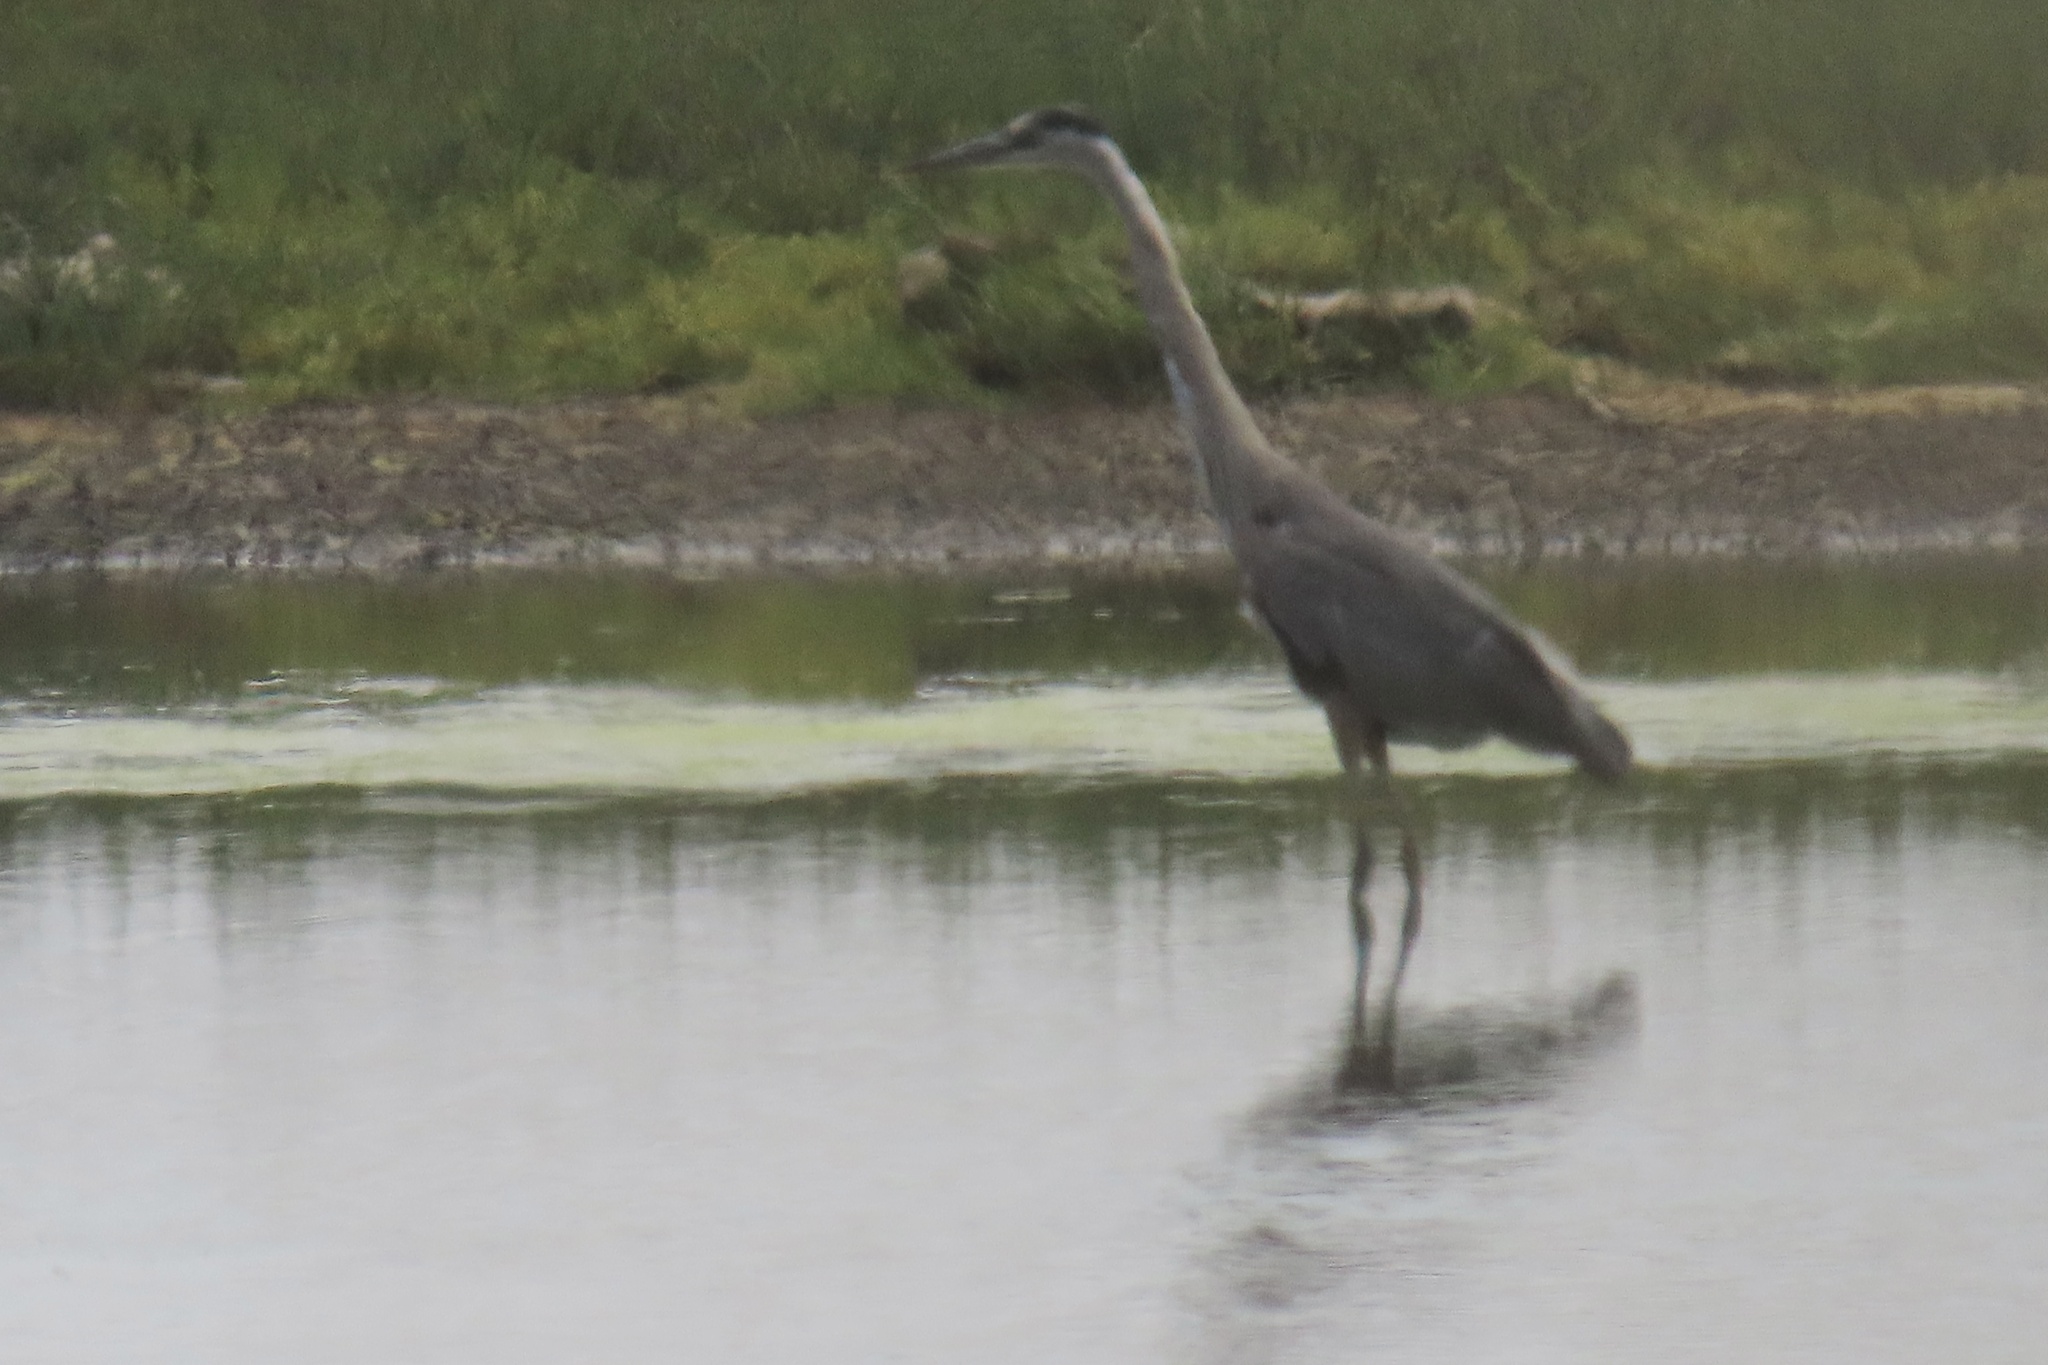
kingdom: Animalia
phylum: Chordata
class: Aves
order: Pelecaniformes
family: Ardeidae
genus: Ardea
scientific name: Ardea herodias
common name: Great blue heron
